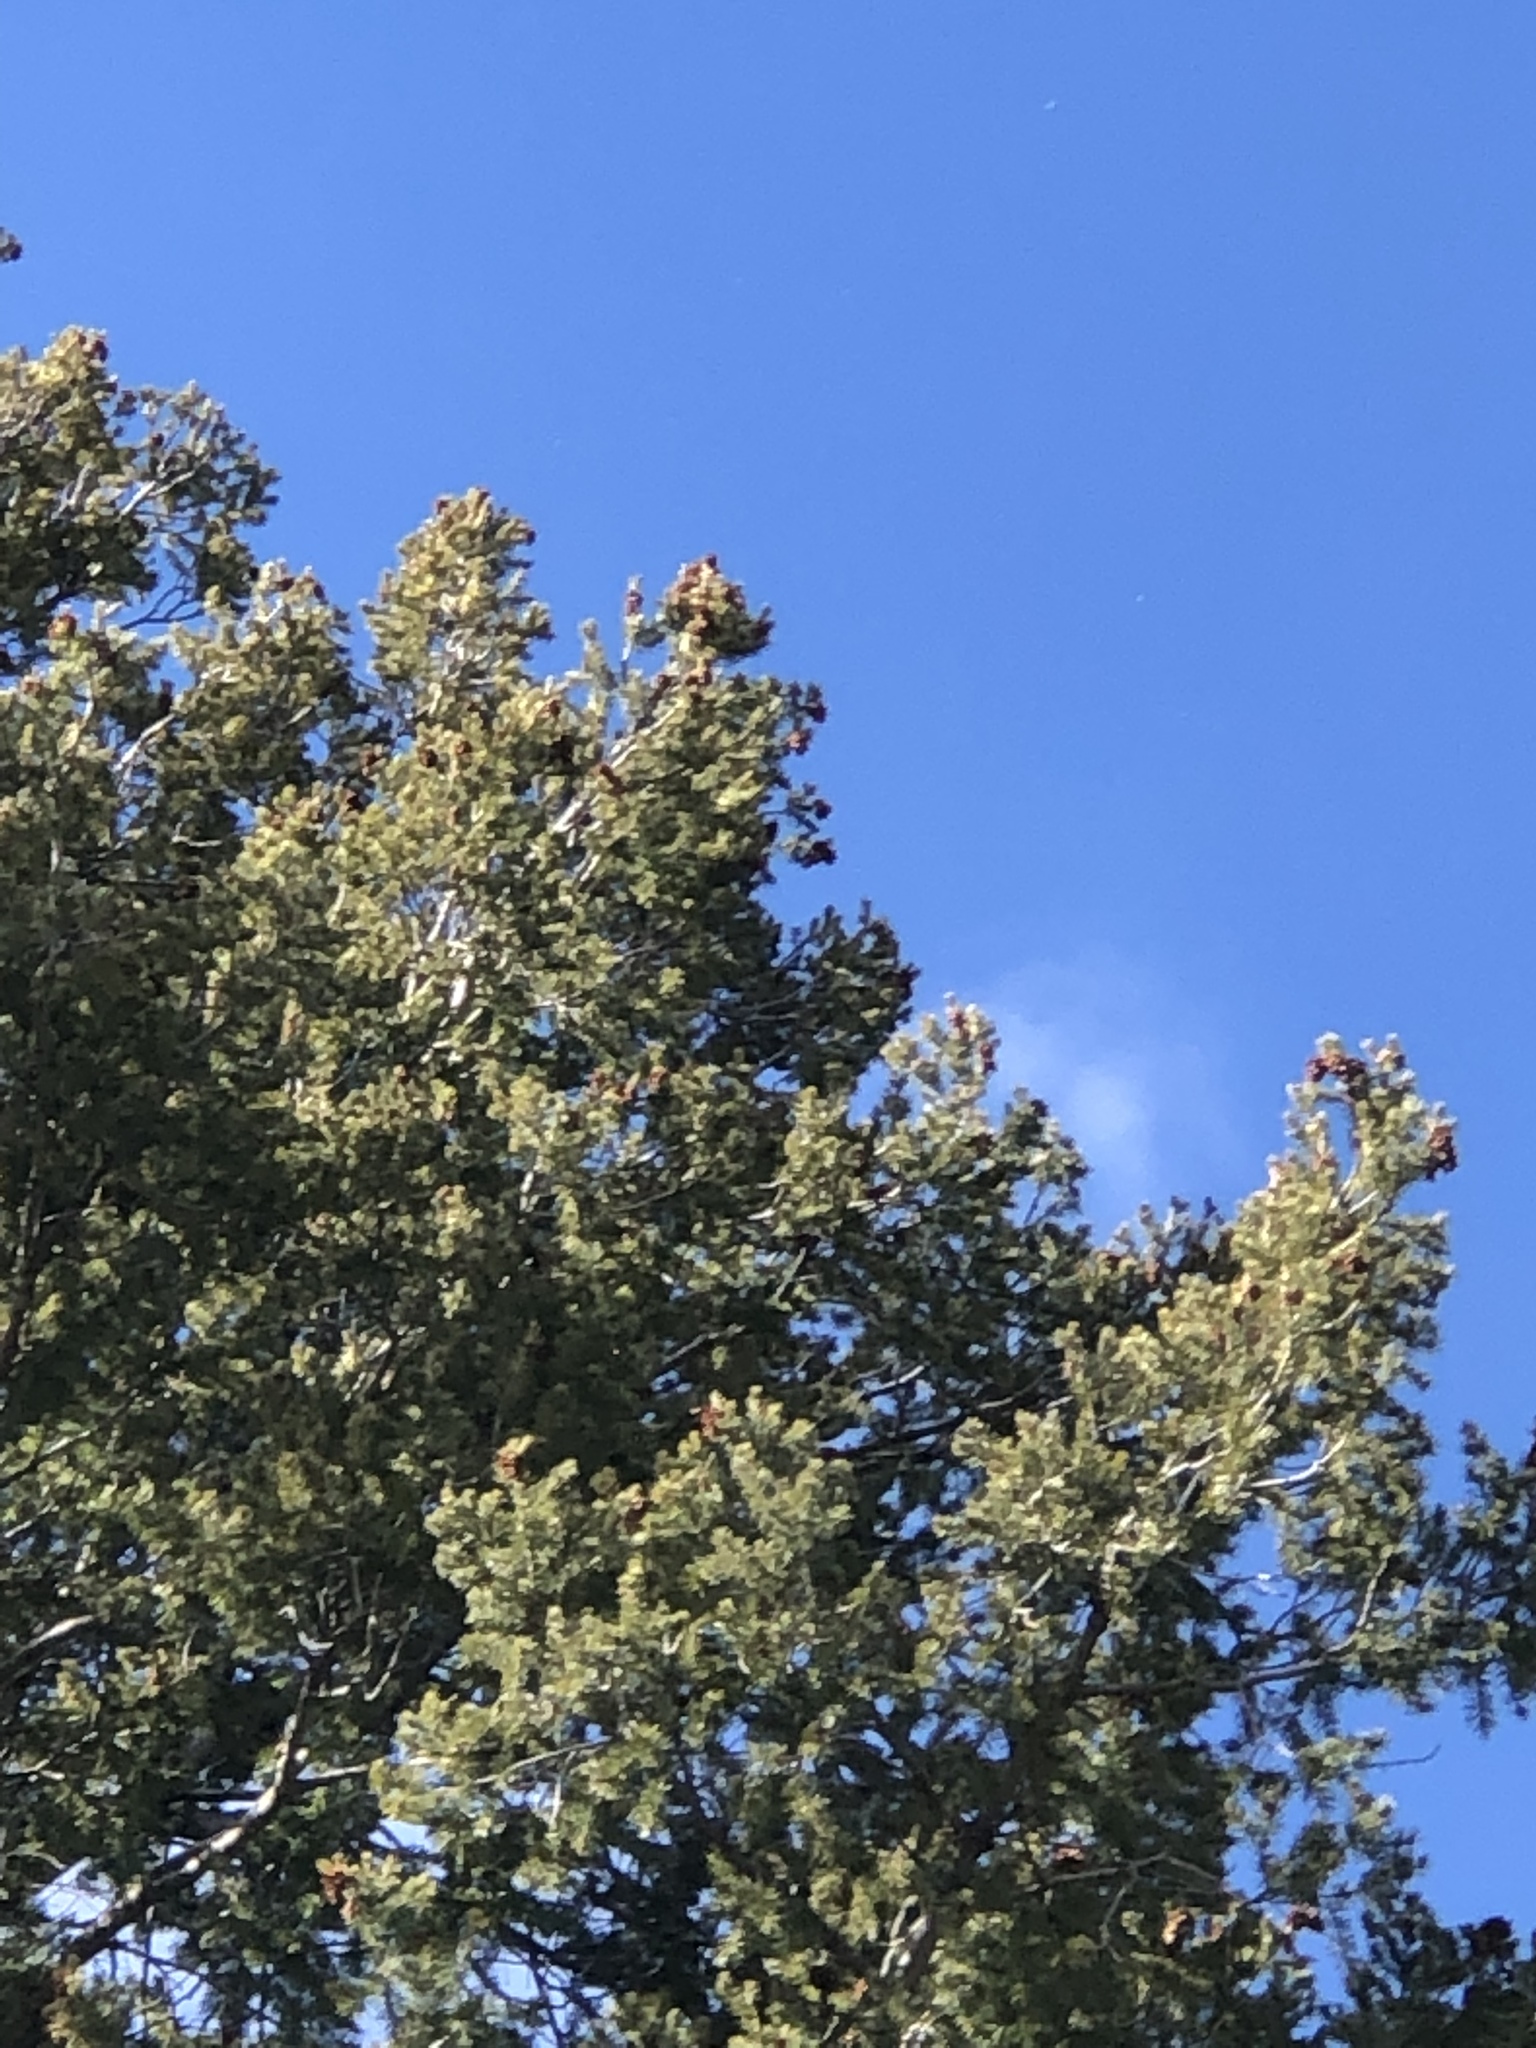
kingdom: Plantae
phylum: Tracheophyta
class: Pinopsida
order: Pinales
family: Pinaceae
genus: Pinus
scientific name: Pinus edulis
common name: Colorado pinyon
